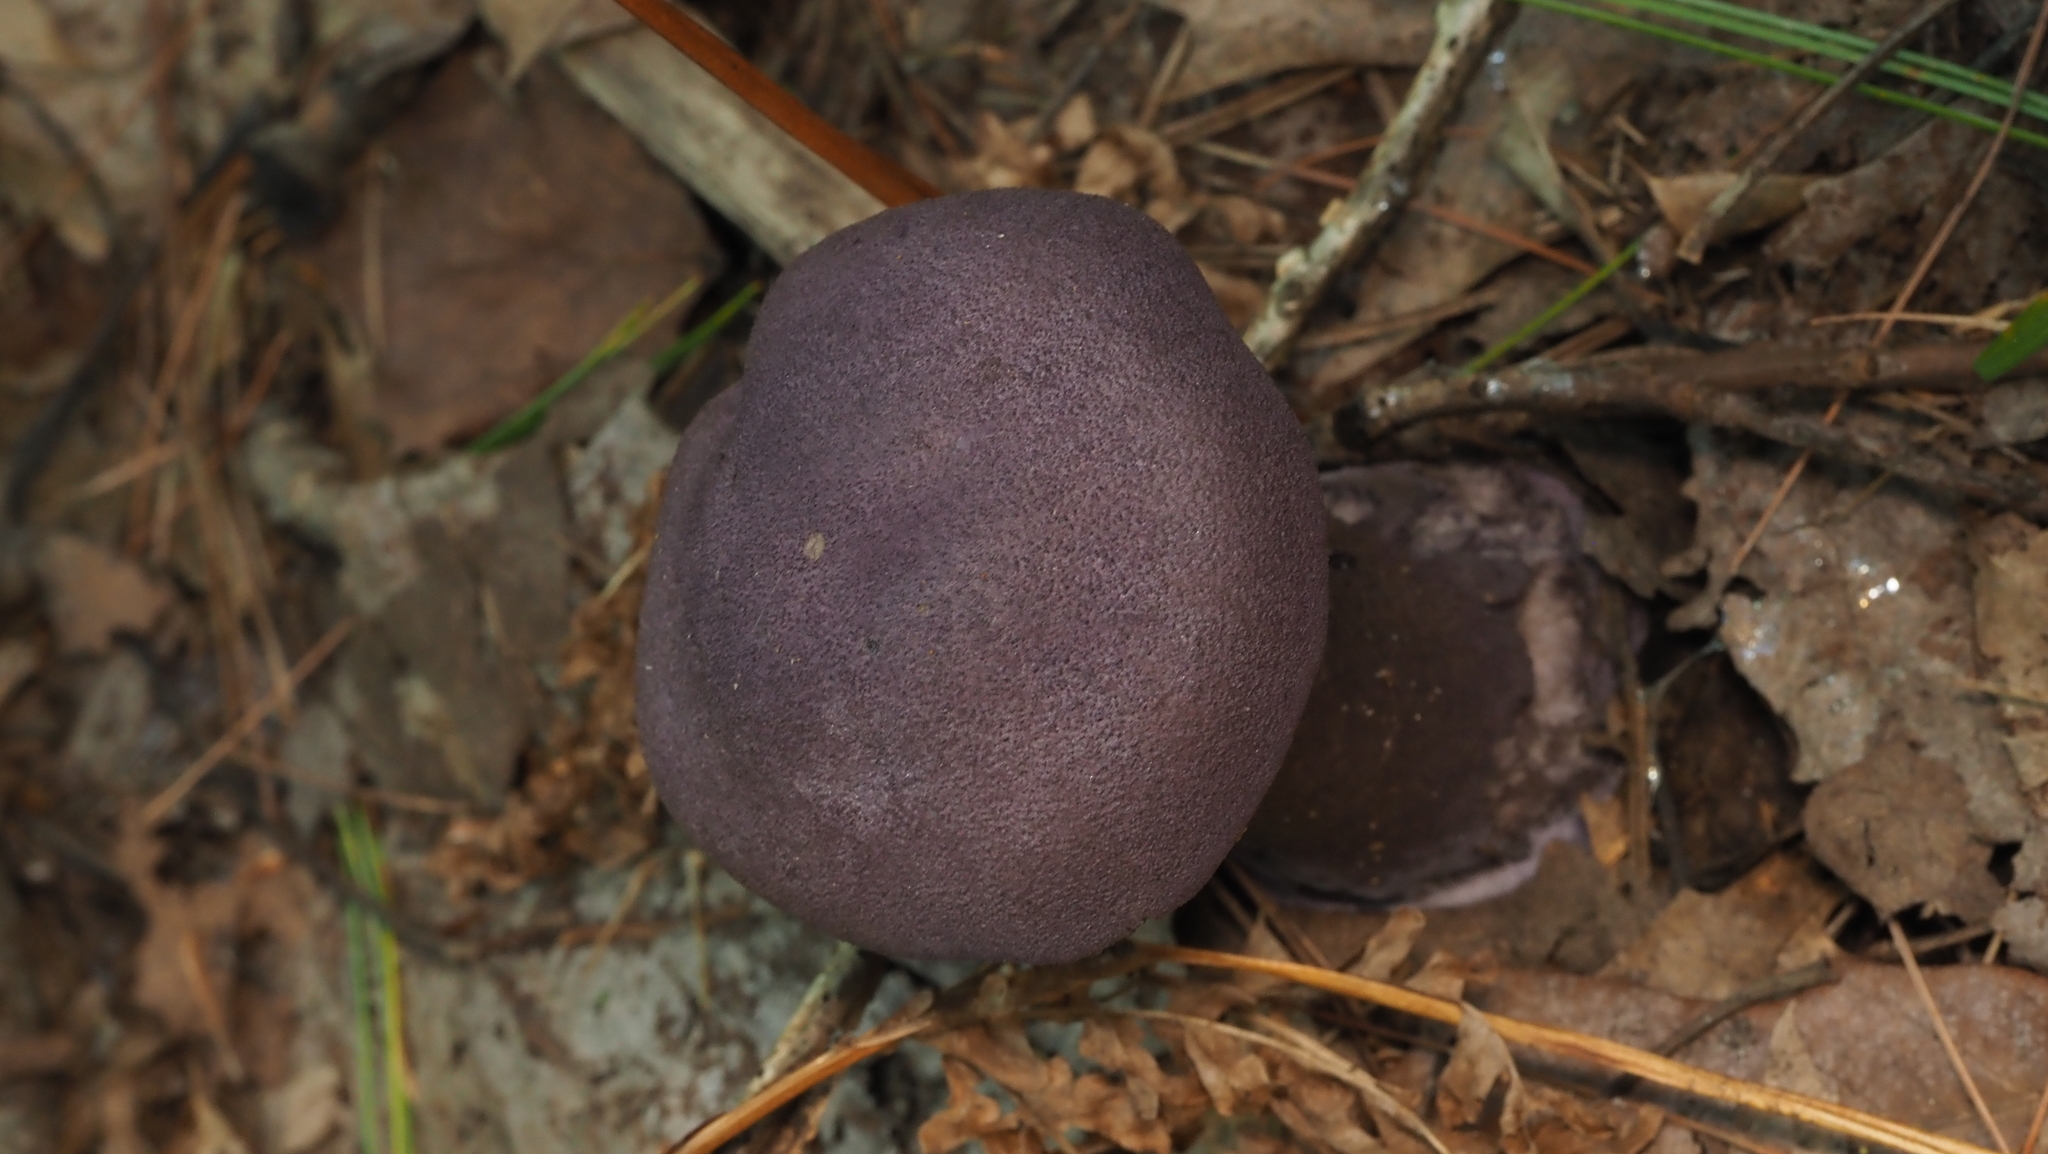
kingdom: Fungi
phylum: Basidiomycota
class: Agaricomycetes
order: Agaricales
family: Cortinariaceae
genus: Cortinarius
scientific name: Cortinarius violaceus
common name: Violet webcap
